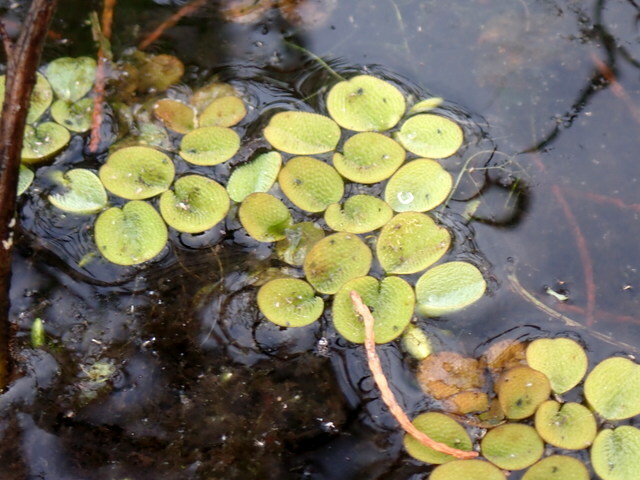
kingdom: Plantae
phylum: Tracheophyta
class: Polypodiopsida
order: Salviniales
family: Salviniaceae
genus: Salvinia
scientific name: Salvinia minima
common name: Water spangles
